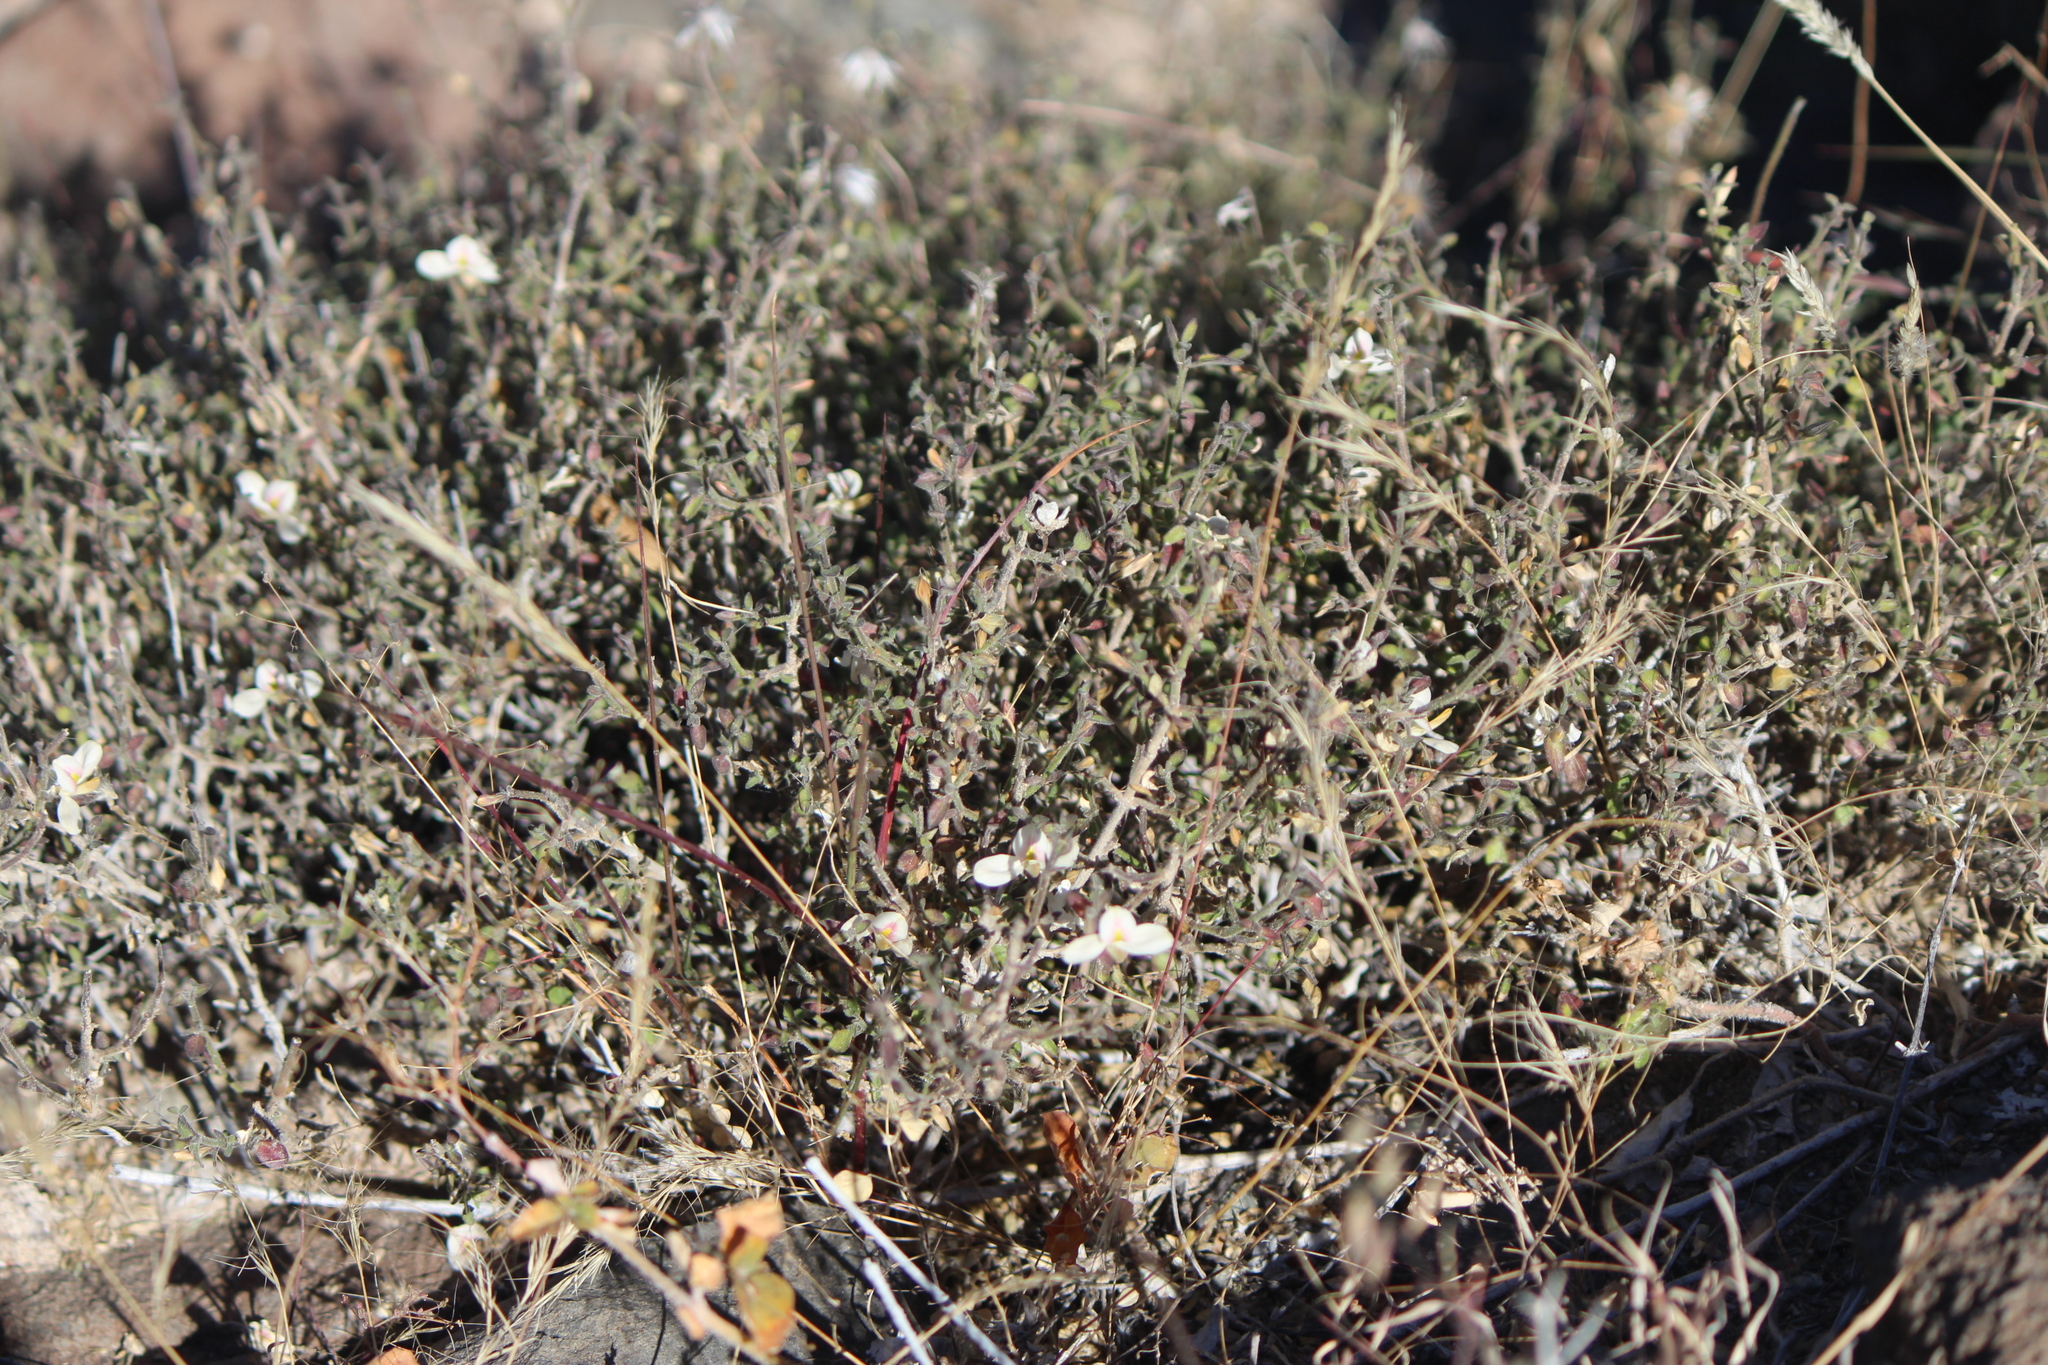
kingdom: Plantae
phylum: Tracheophyta
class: Magnoliopsida
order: Lamiales
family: Acanthaceae
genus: Carlowrightia
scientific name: Carlowrightia arizonica
